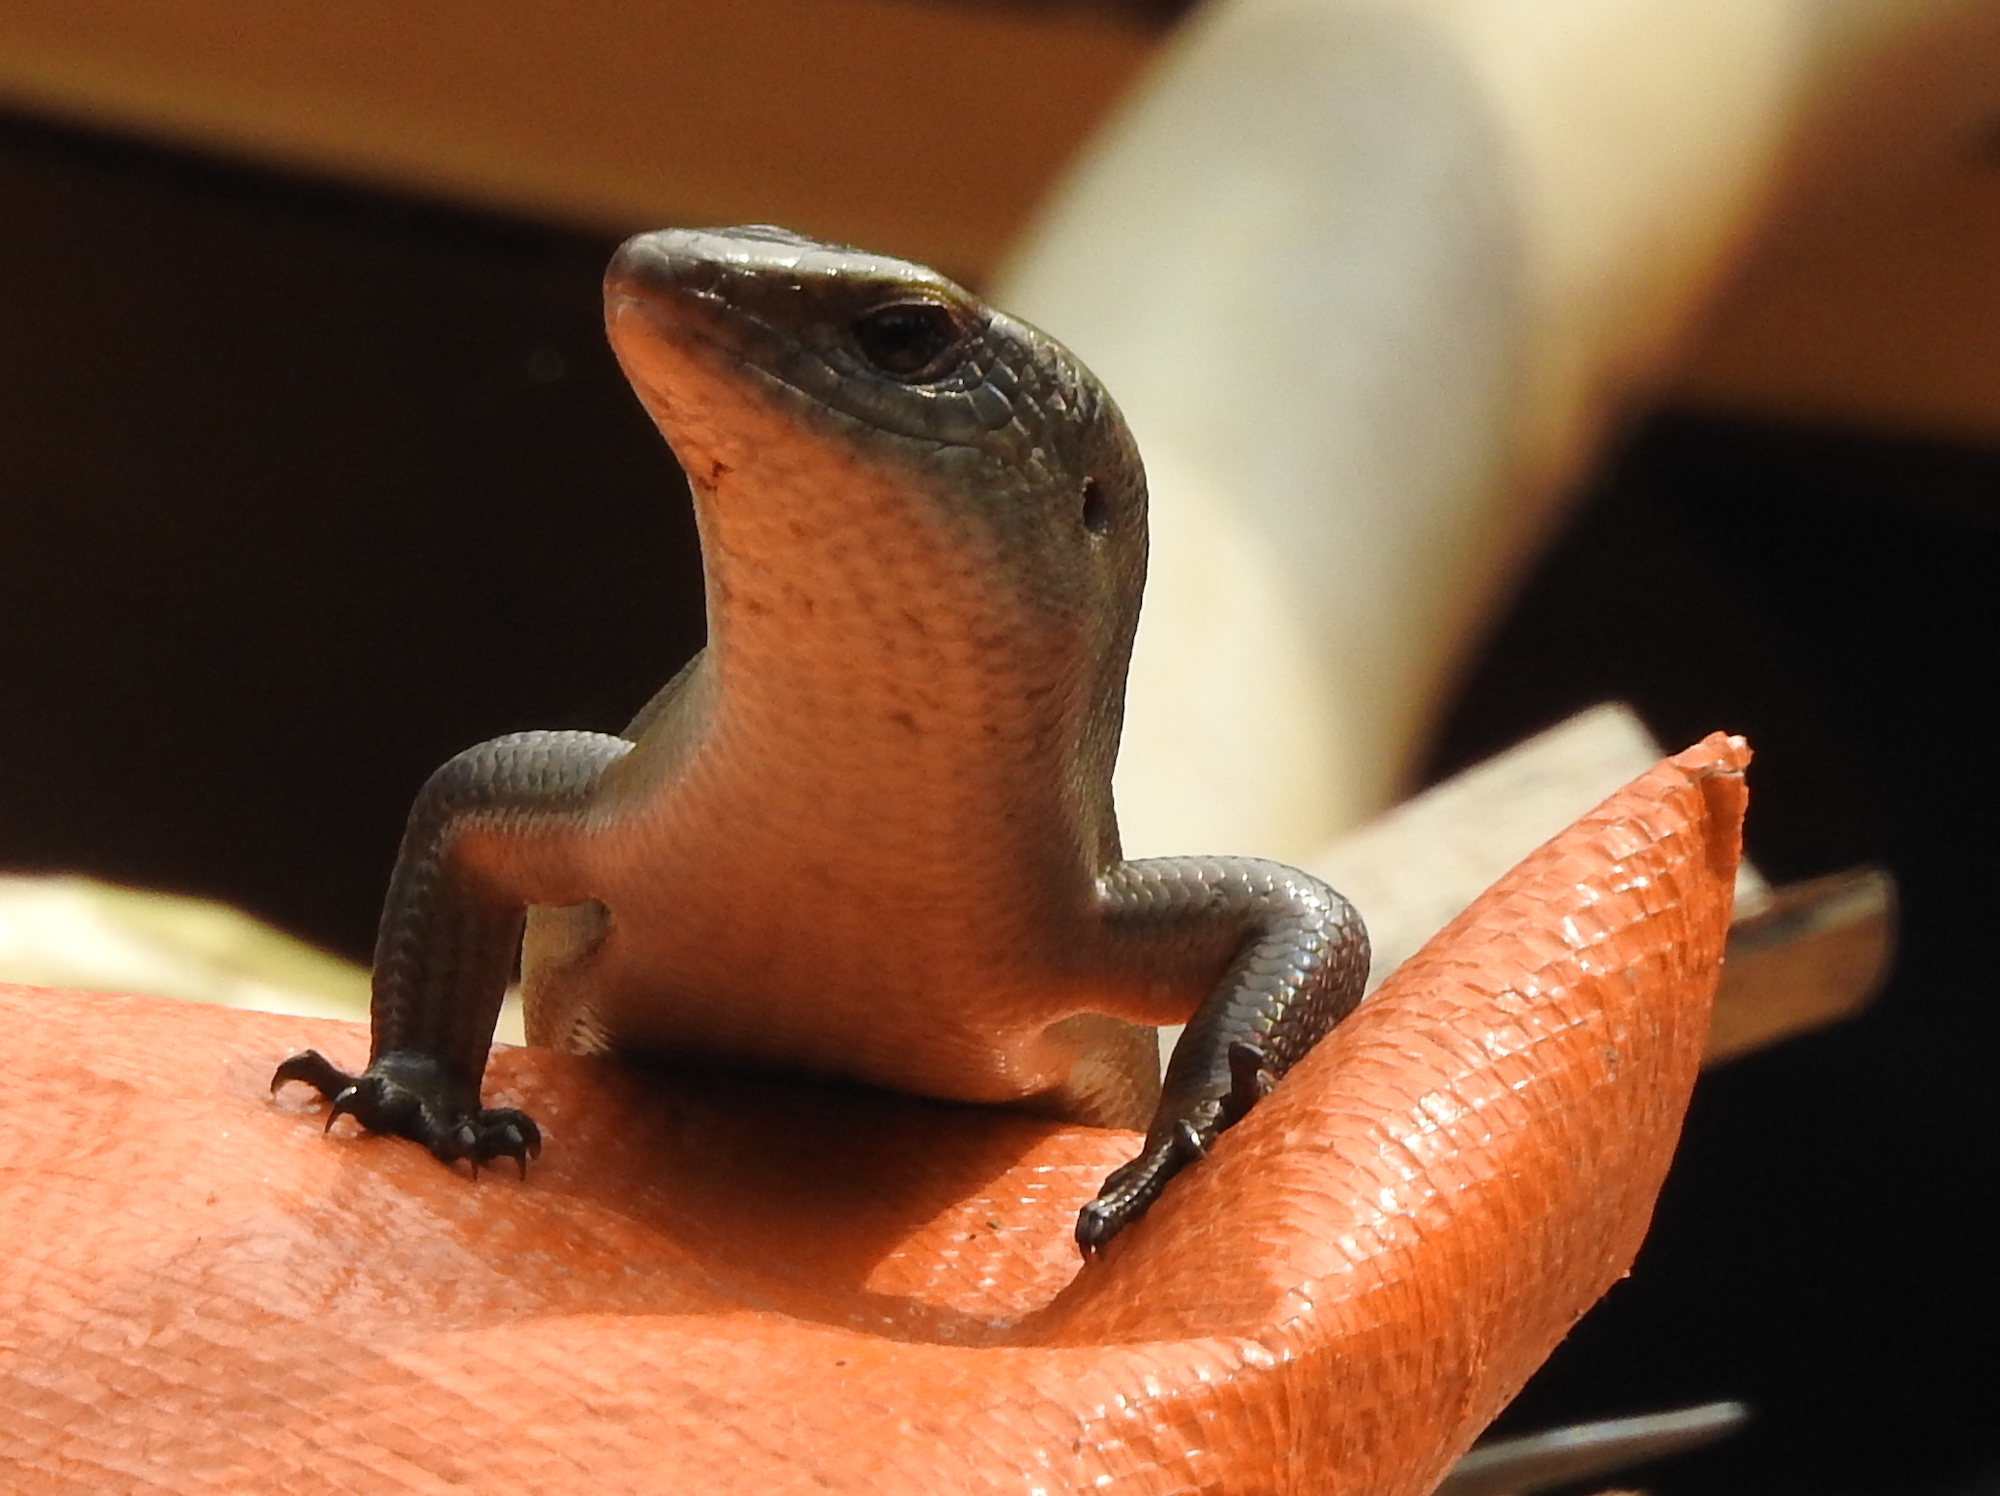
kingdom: Animalia
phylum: Chordata
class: Squamata
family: Scincidae
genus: Eutropis
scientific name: Eutropis multifasciata
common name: Common mabuya
